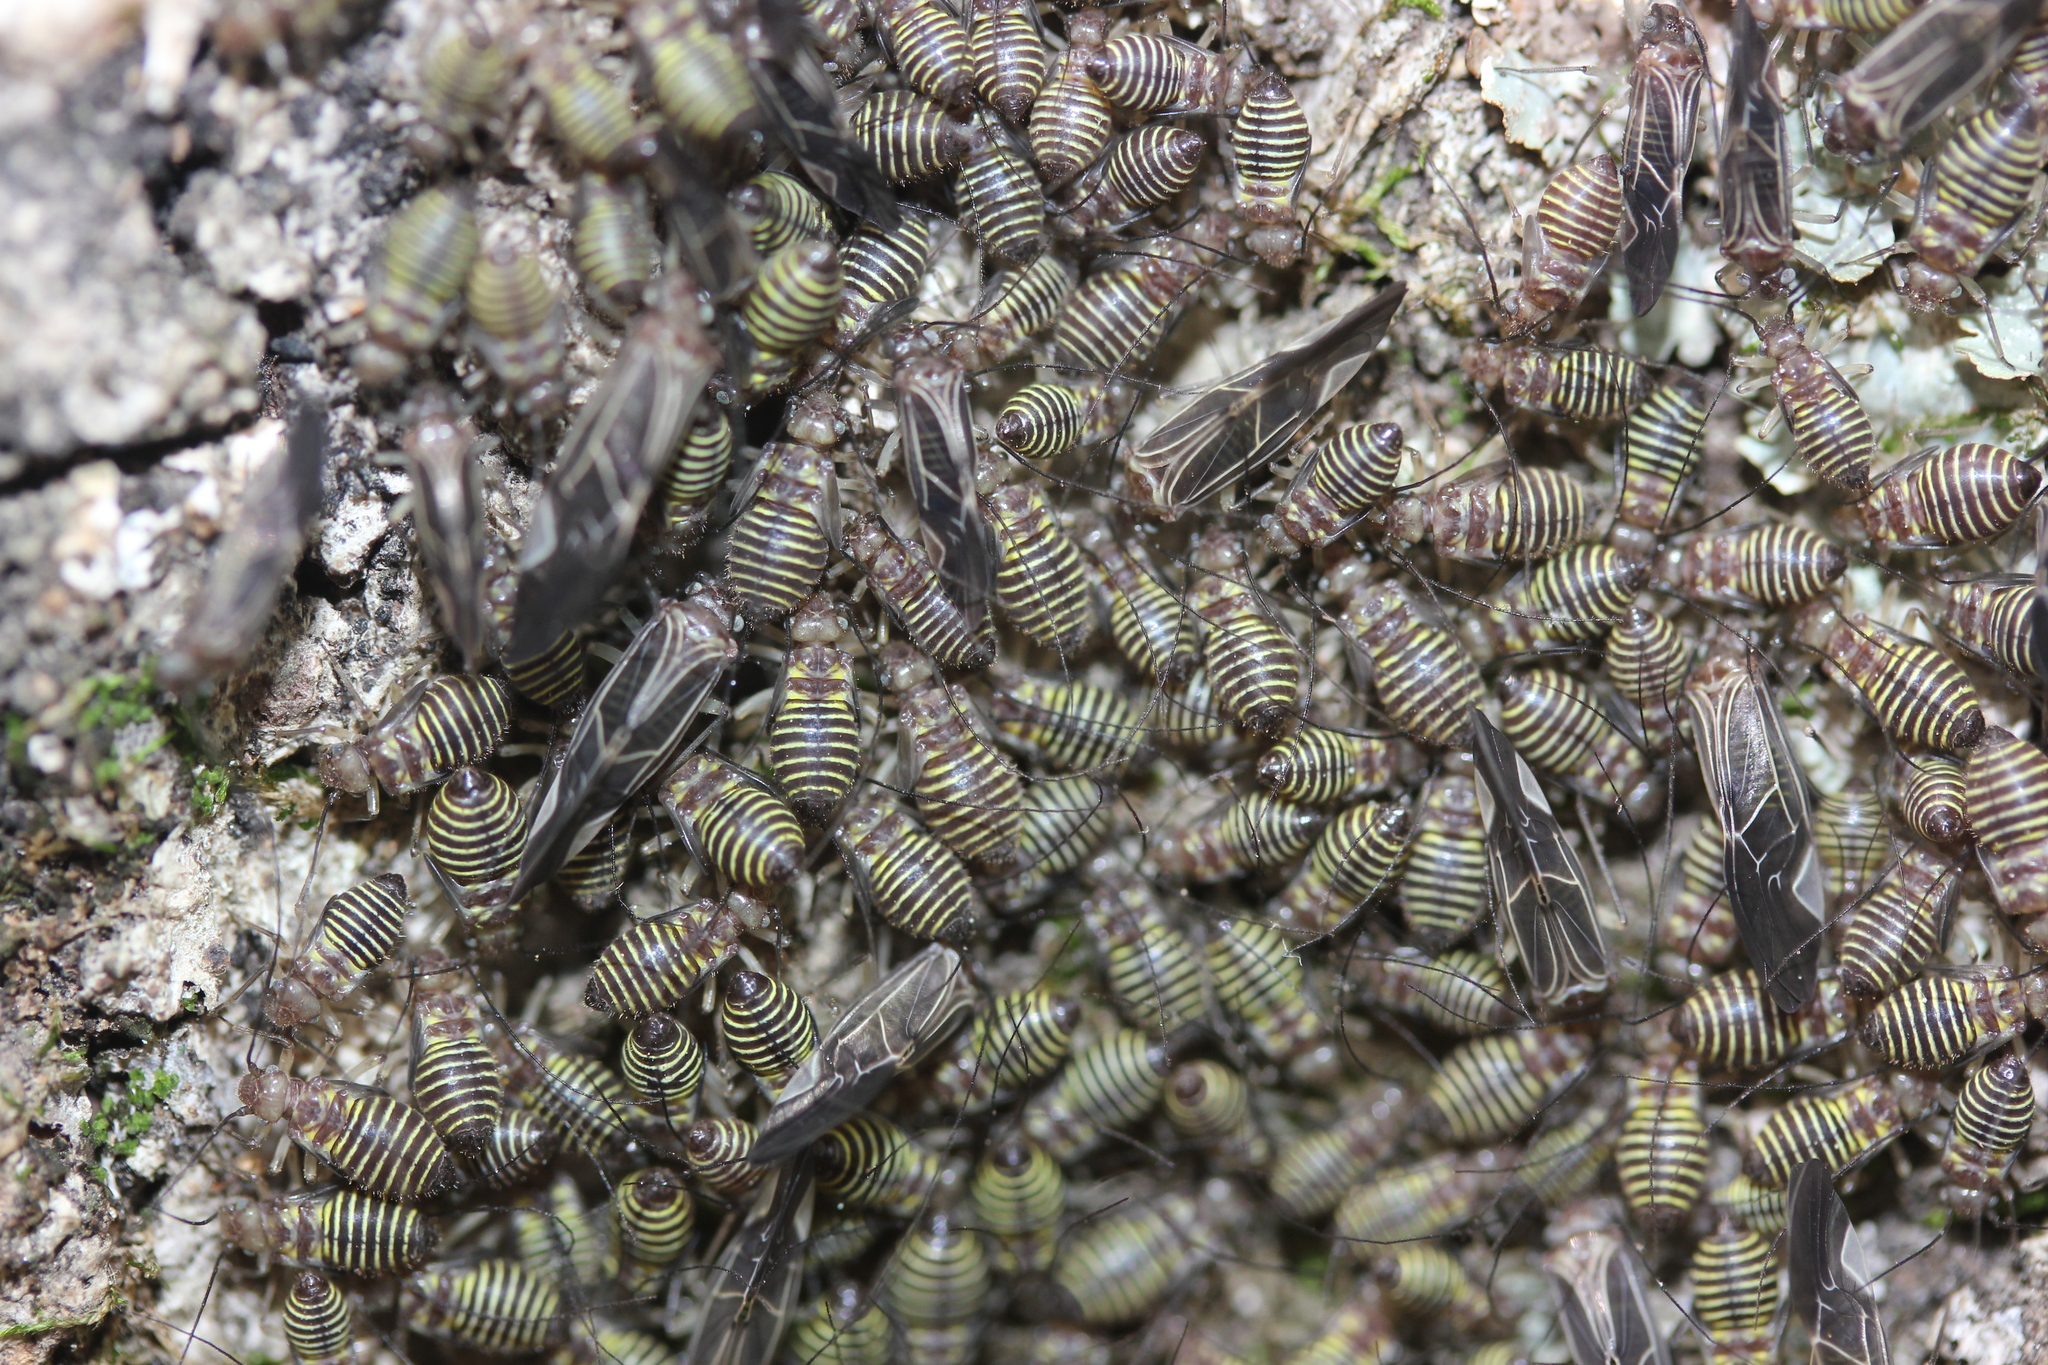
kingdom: Animalia
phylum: Arthropoda
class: Insecta
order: Psocodea
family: Psocidae
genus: Cerastipsocus
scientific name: Cerastipsocus venosus
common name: Tree cattle
